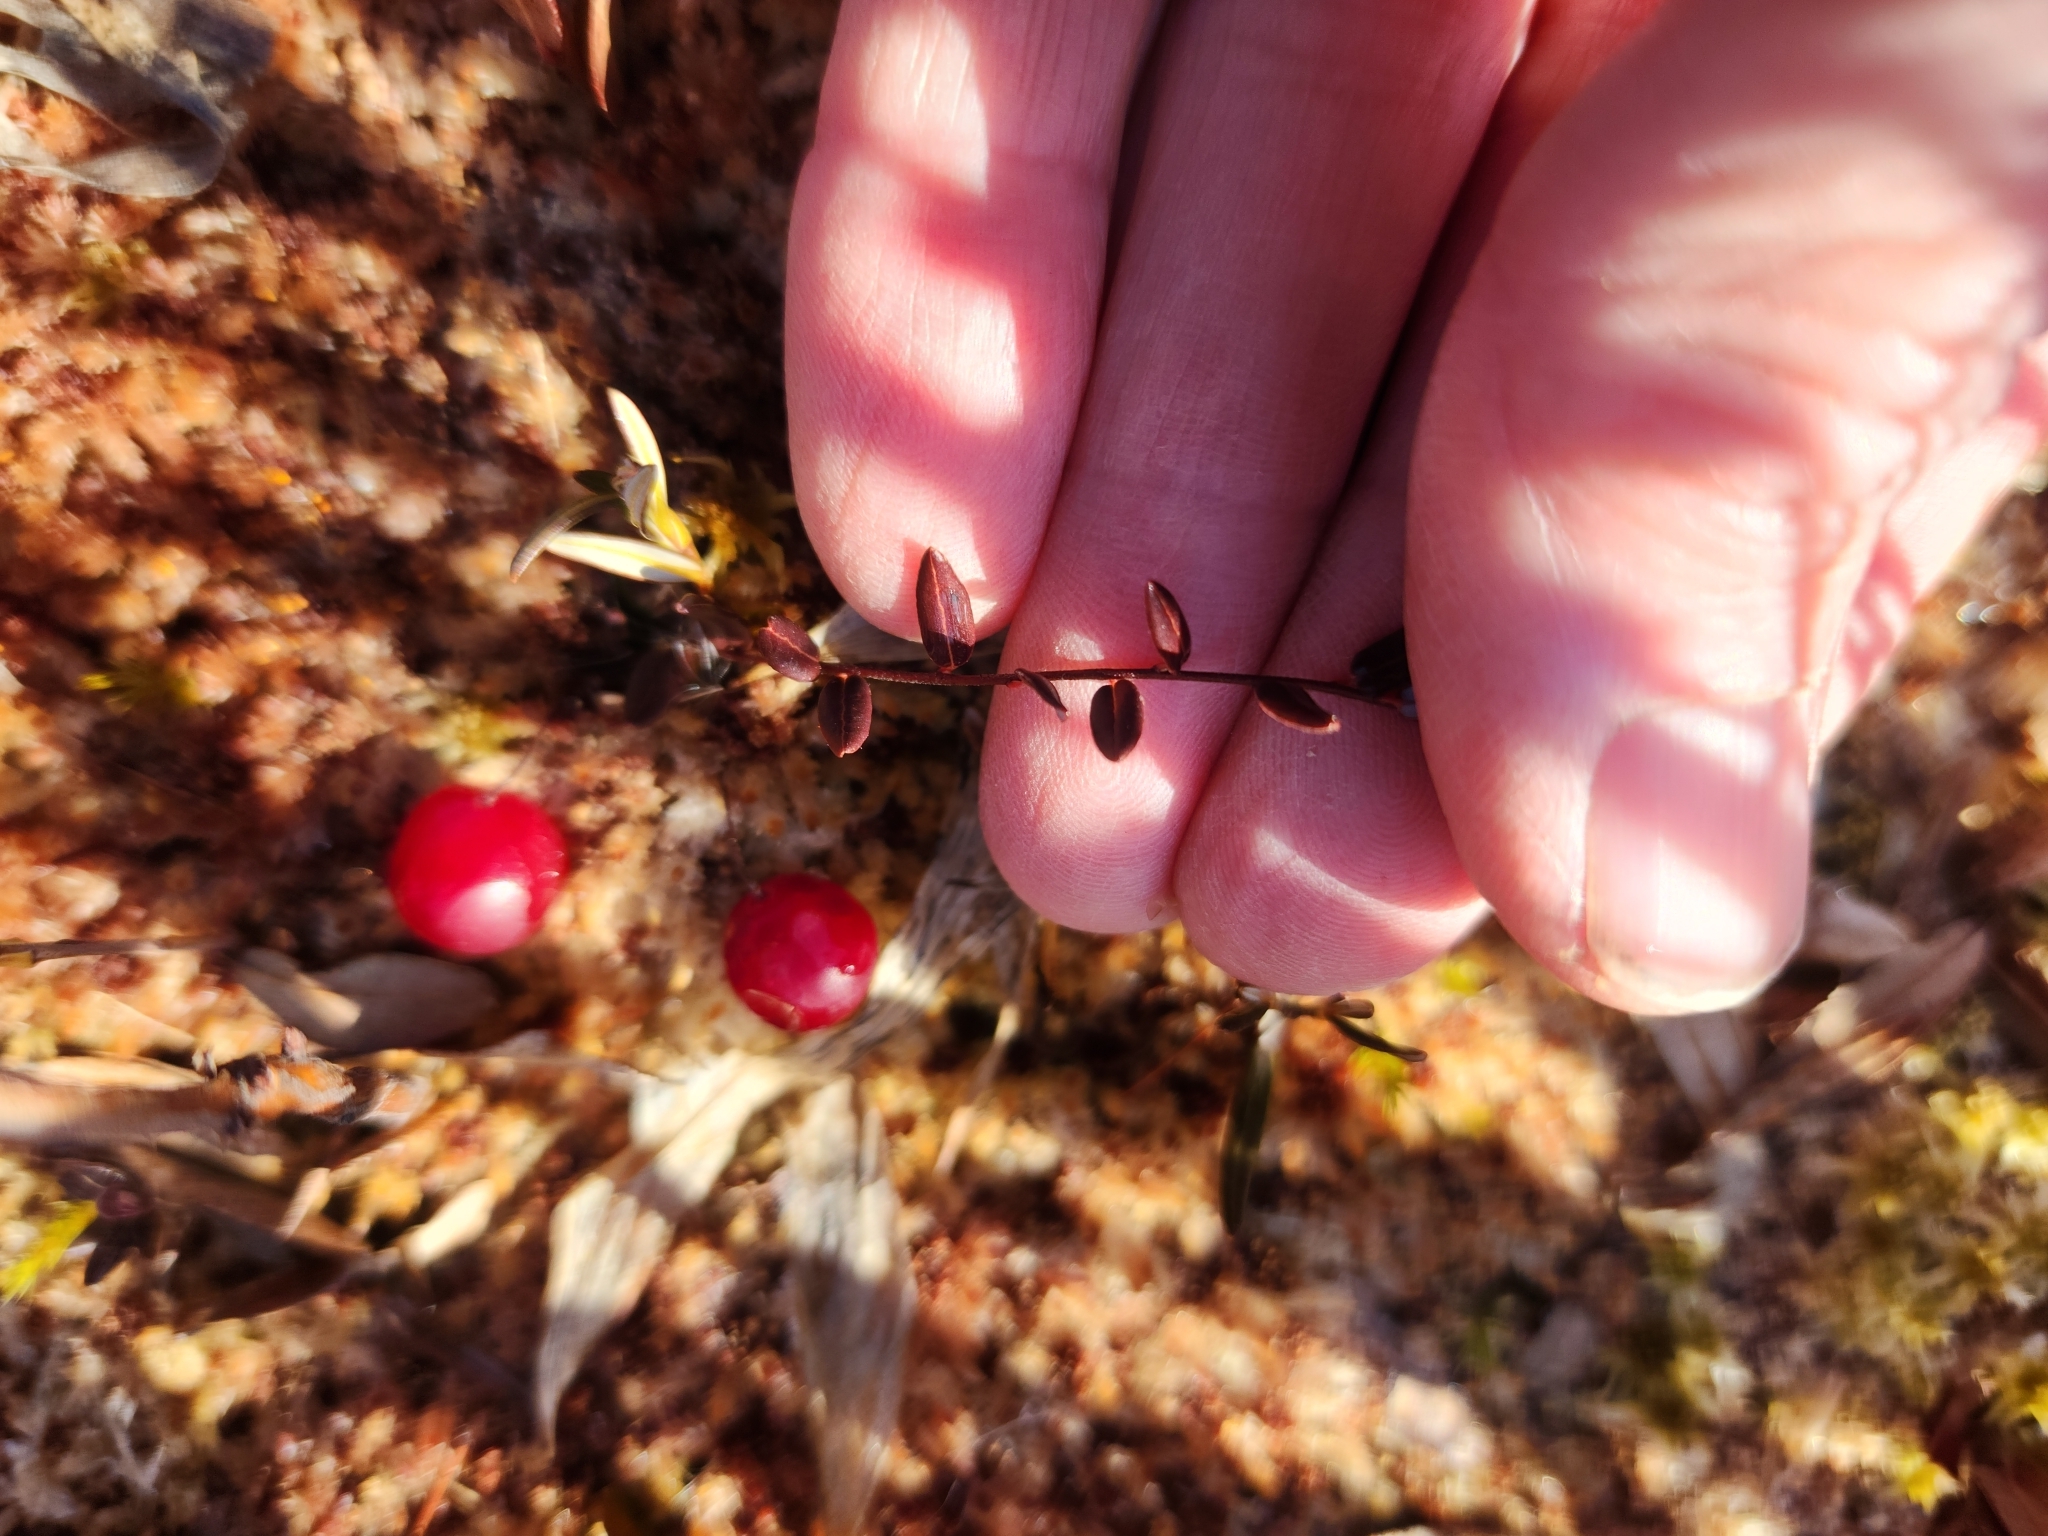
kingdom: Plantae
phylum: Tracheophyta
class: Magnoliopsida
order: Ericales
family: Ericaceae
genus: Vaccinium
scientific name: Vaccinium oxycoccos
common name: Cranberry
